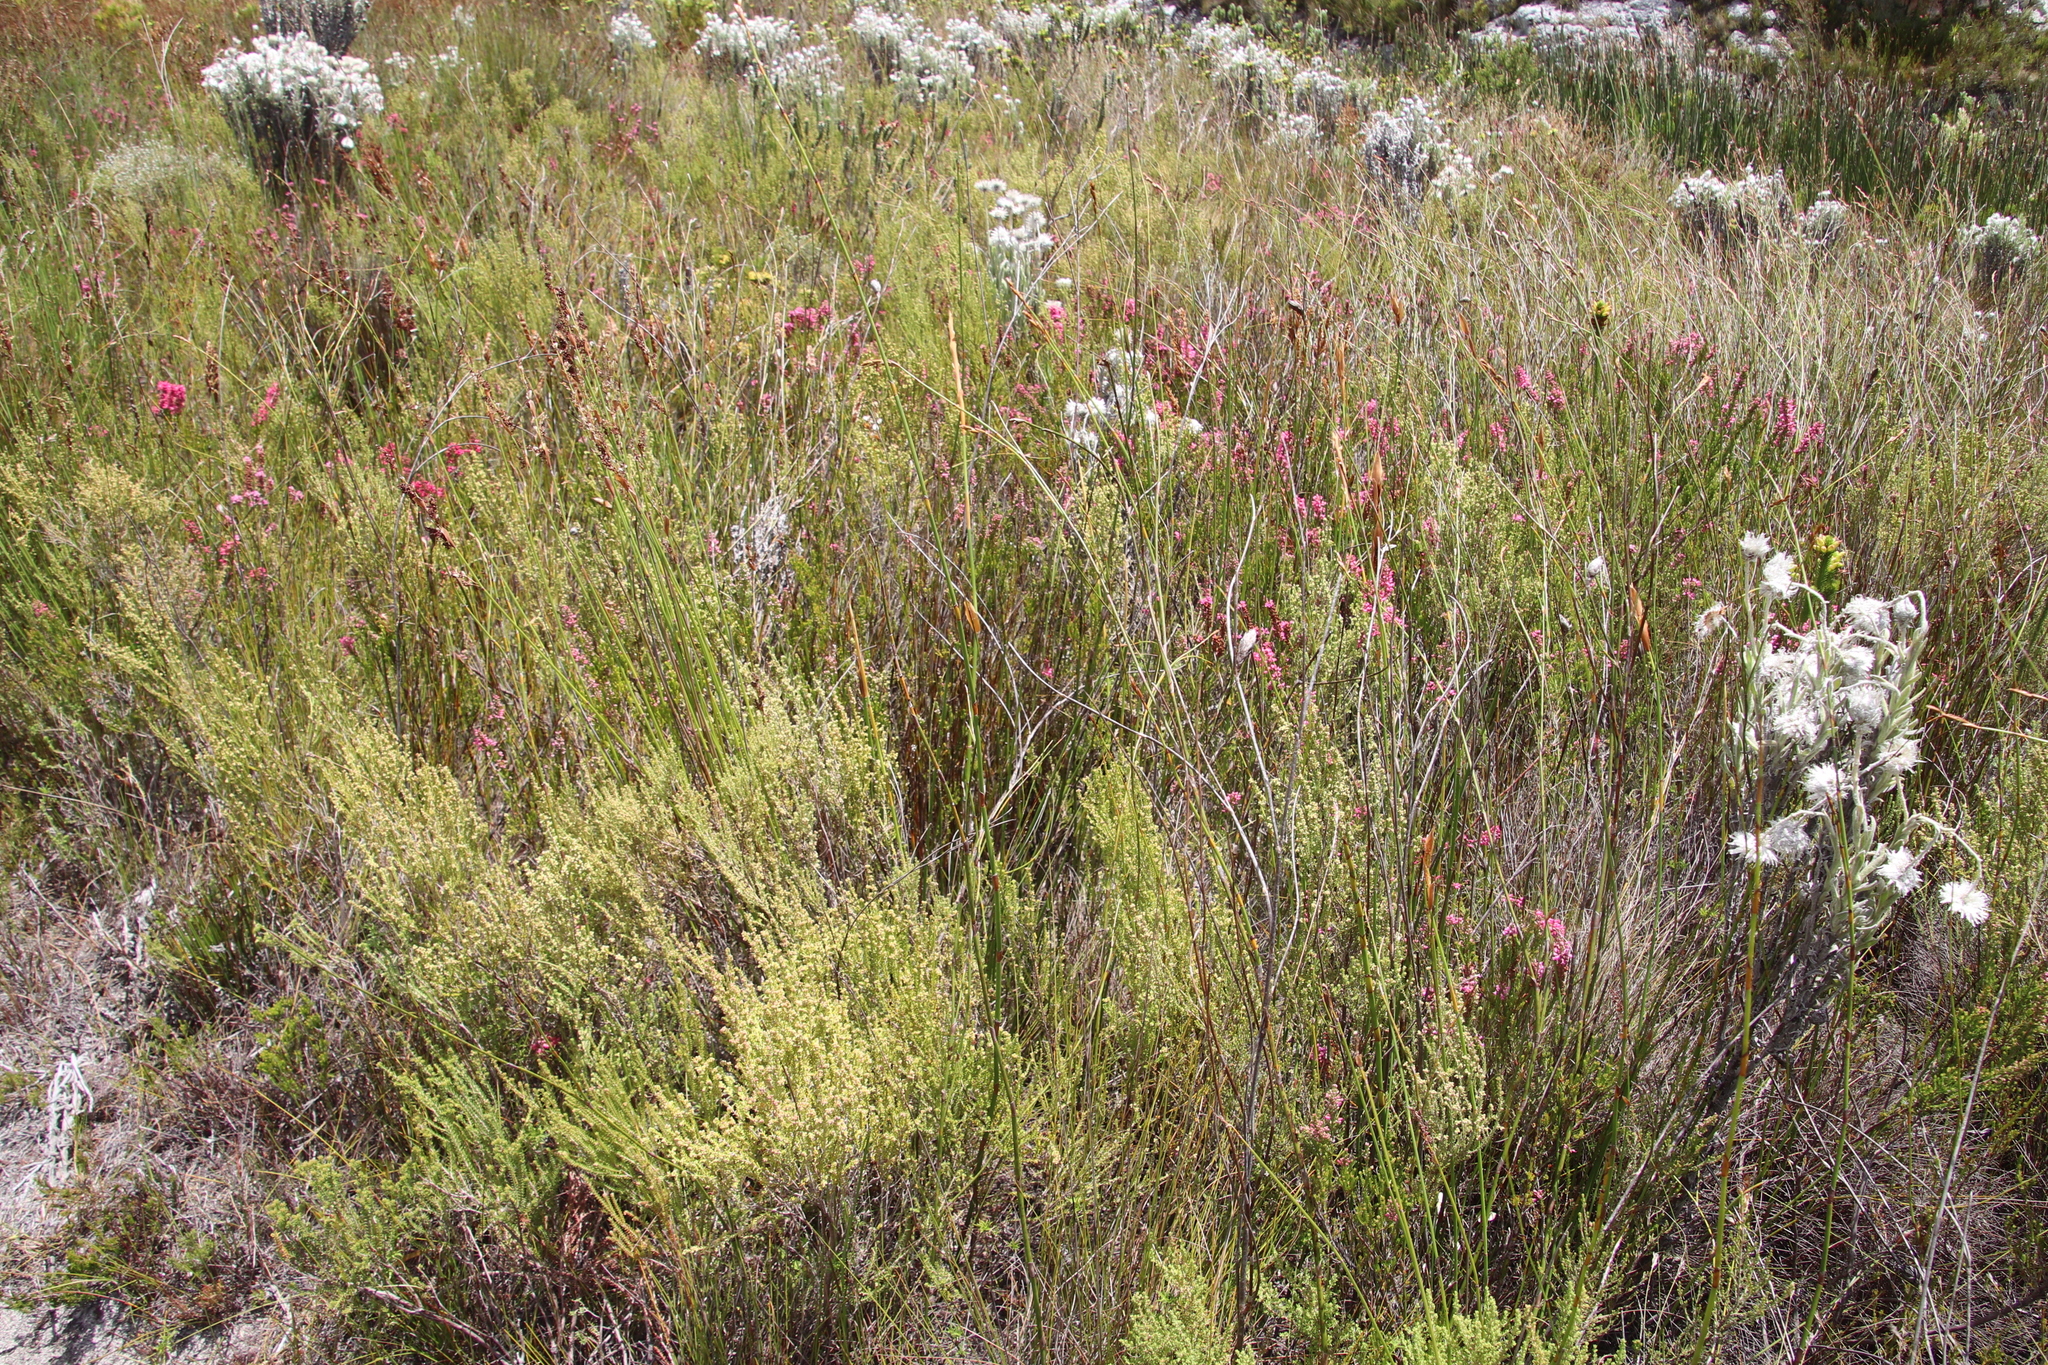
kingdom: Plantae
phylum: Tracheophyta
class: Magnoliopsida
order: Ericales
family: Ericaceae
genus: Erica
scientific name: Erica serrata
